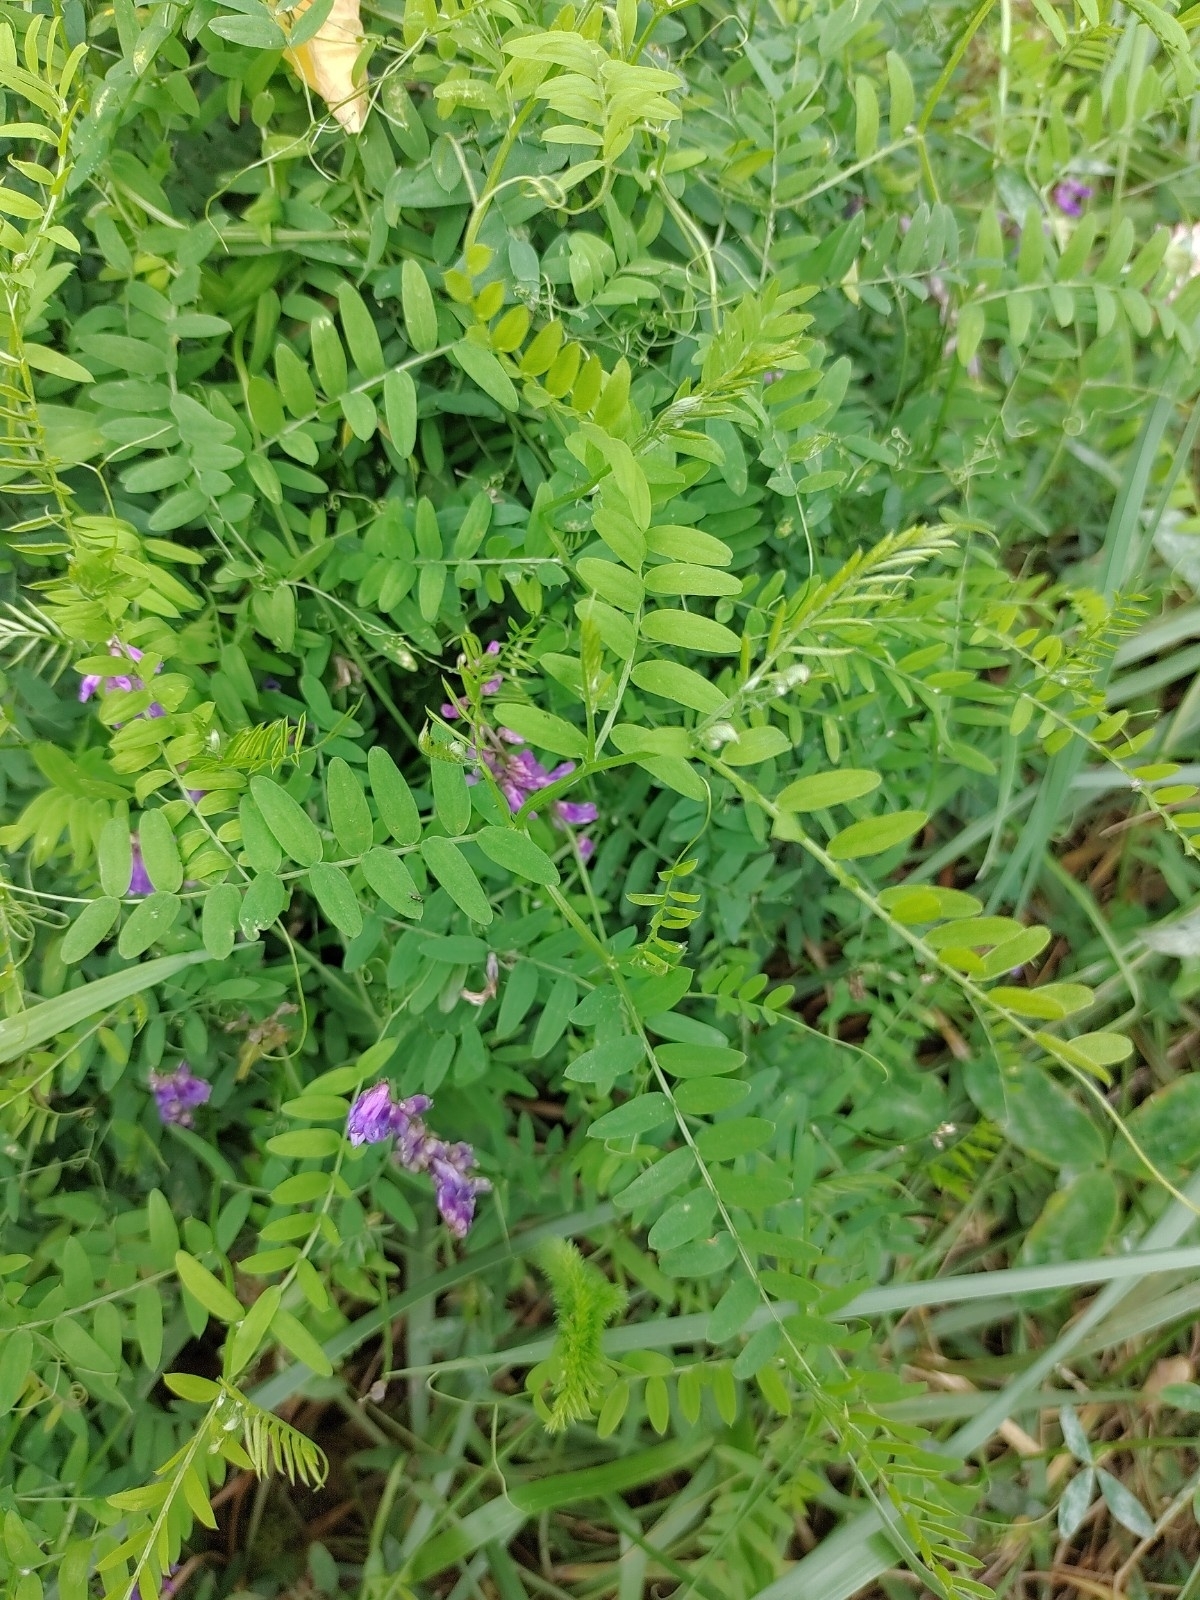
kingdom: Plantae
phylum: Tracheophyta
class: Magnoliopsida
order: Fabales
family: Fabaceae
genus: Vicia
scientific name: Vicia cracca
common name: Bird vetch
